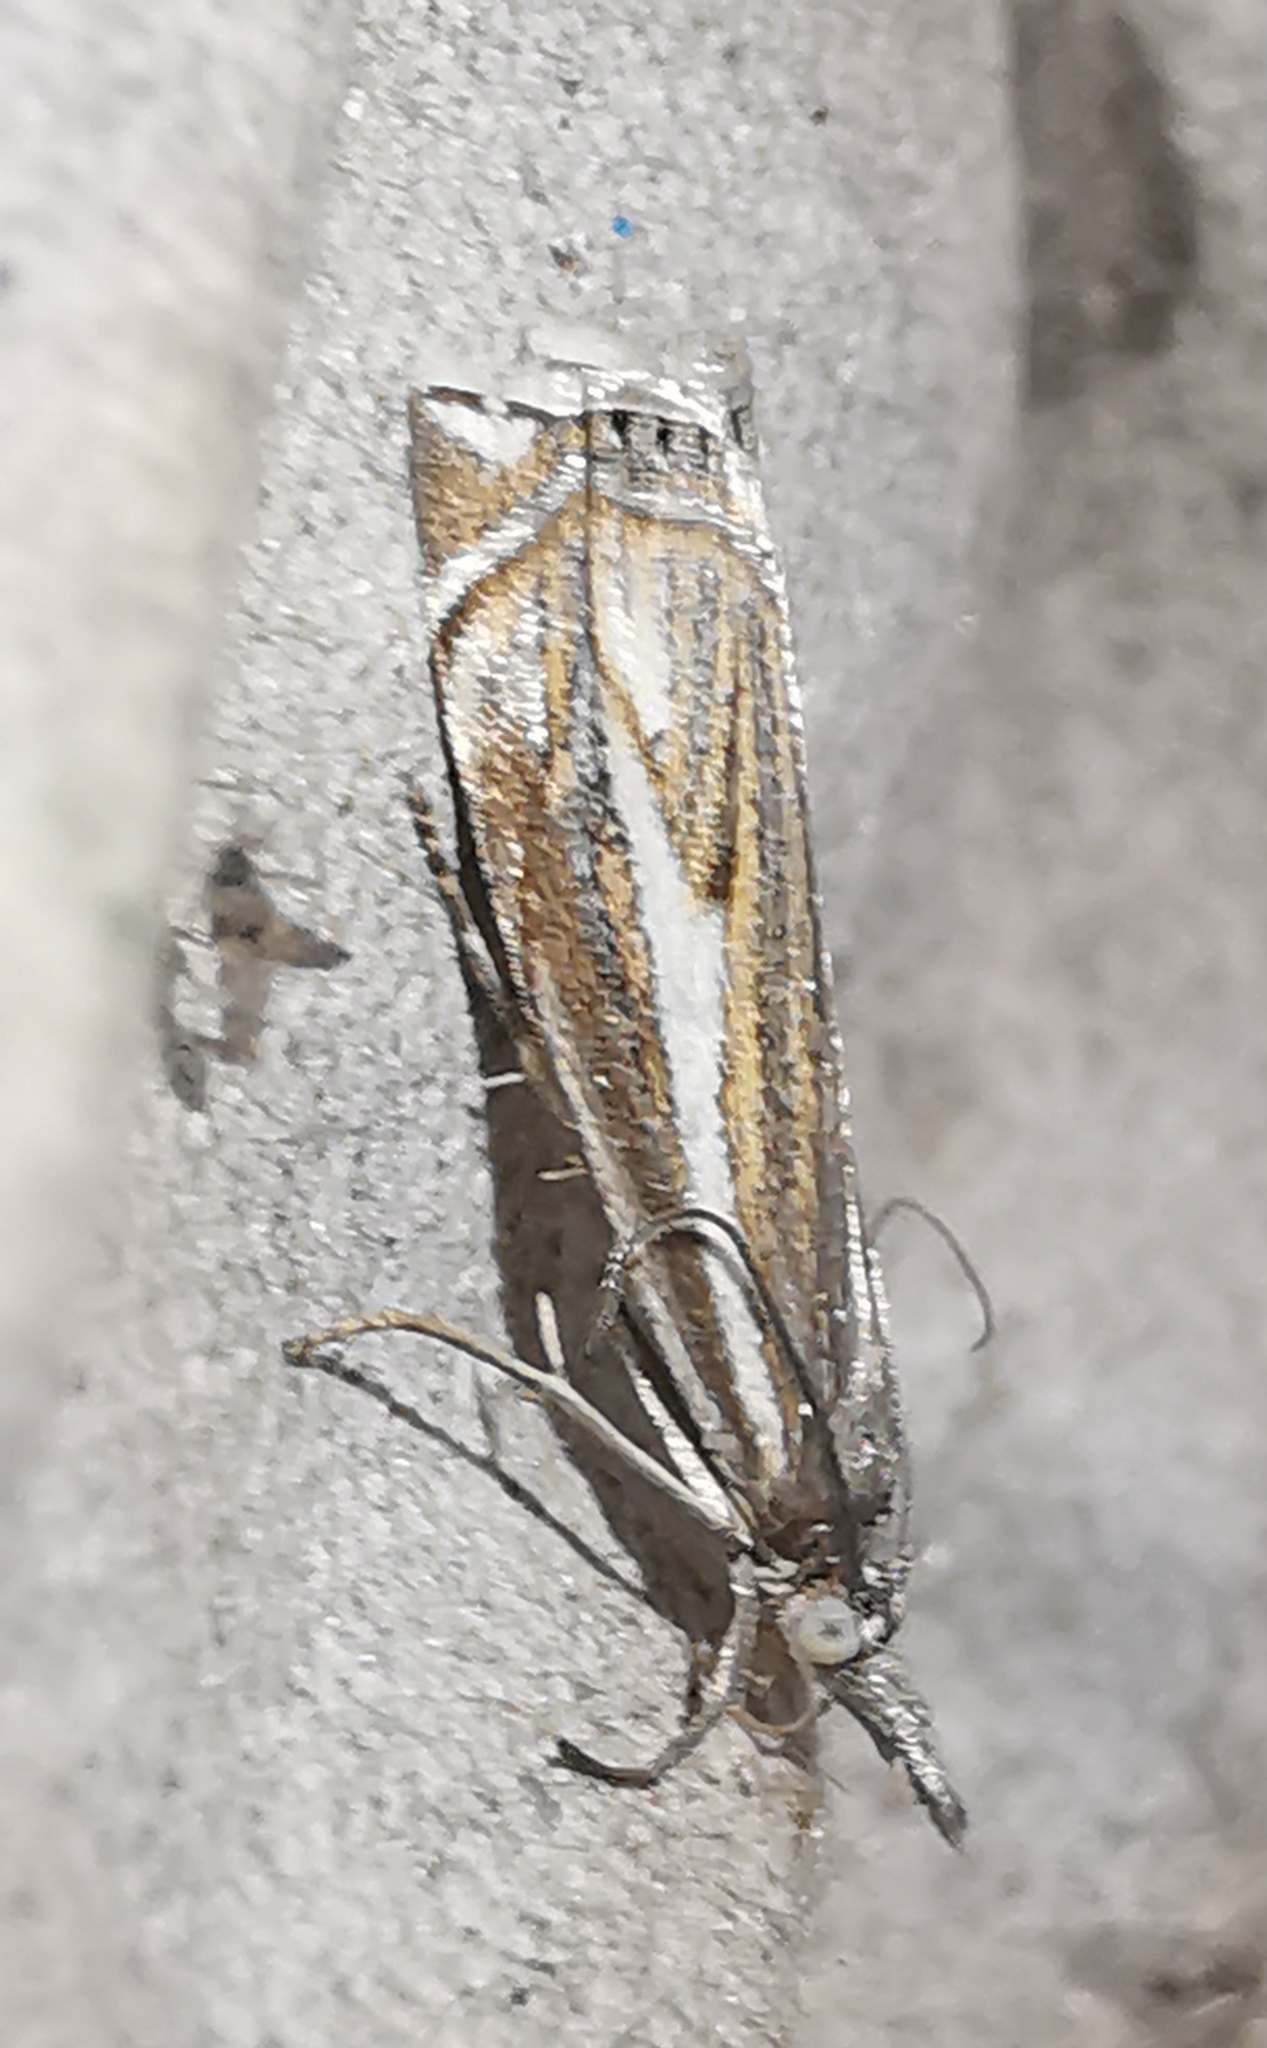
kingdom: Animalia
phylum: Arthropoda
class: Insecta
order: Lepidoptera
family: Crambidae
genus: Crambus
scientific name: Crambus nemorella
